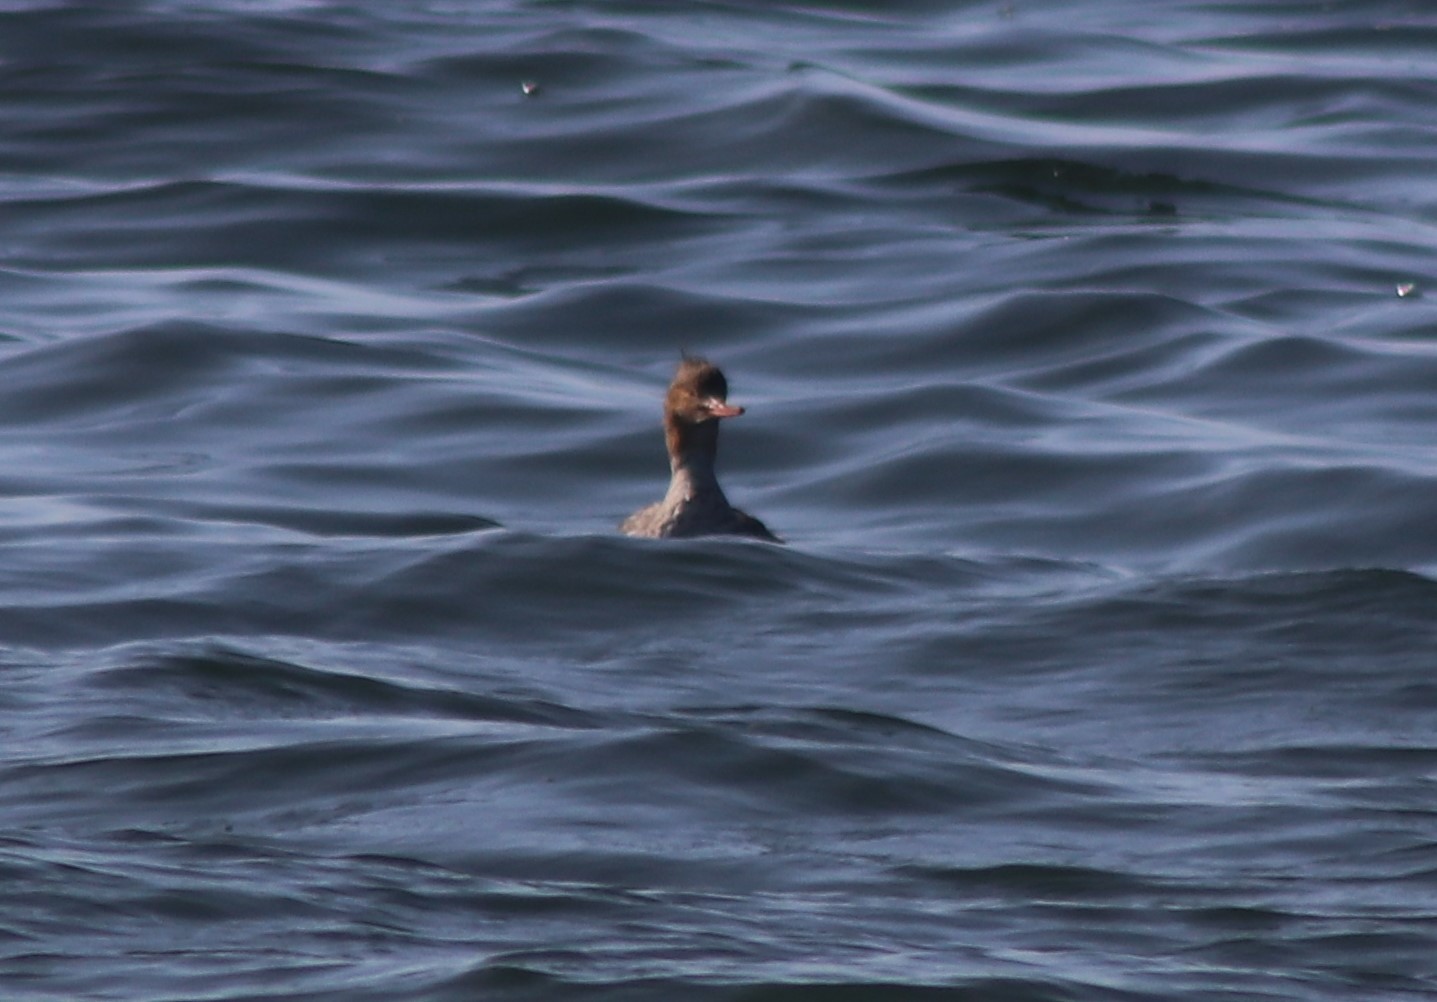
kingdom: Animalia
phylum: Chordata
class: Aves
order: Anseriformes
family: Anatidae
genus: Mergus
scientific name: Mergus serrator
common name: Red-breasted merganser
